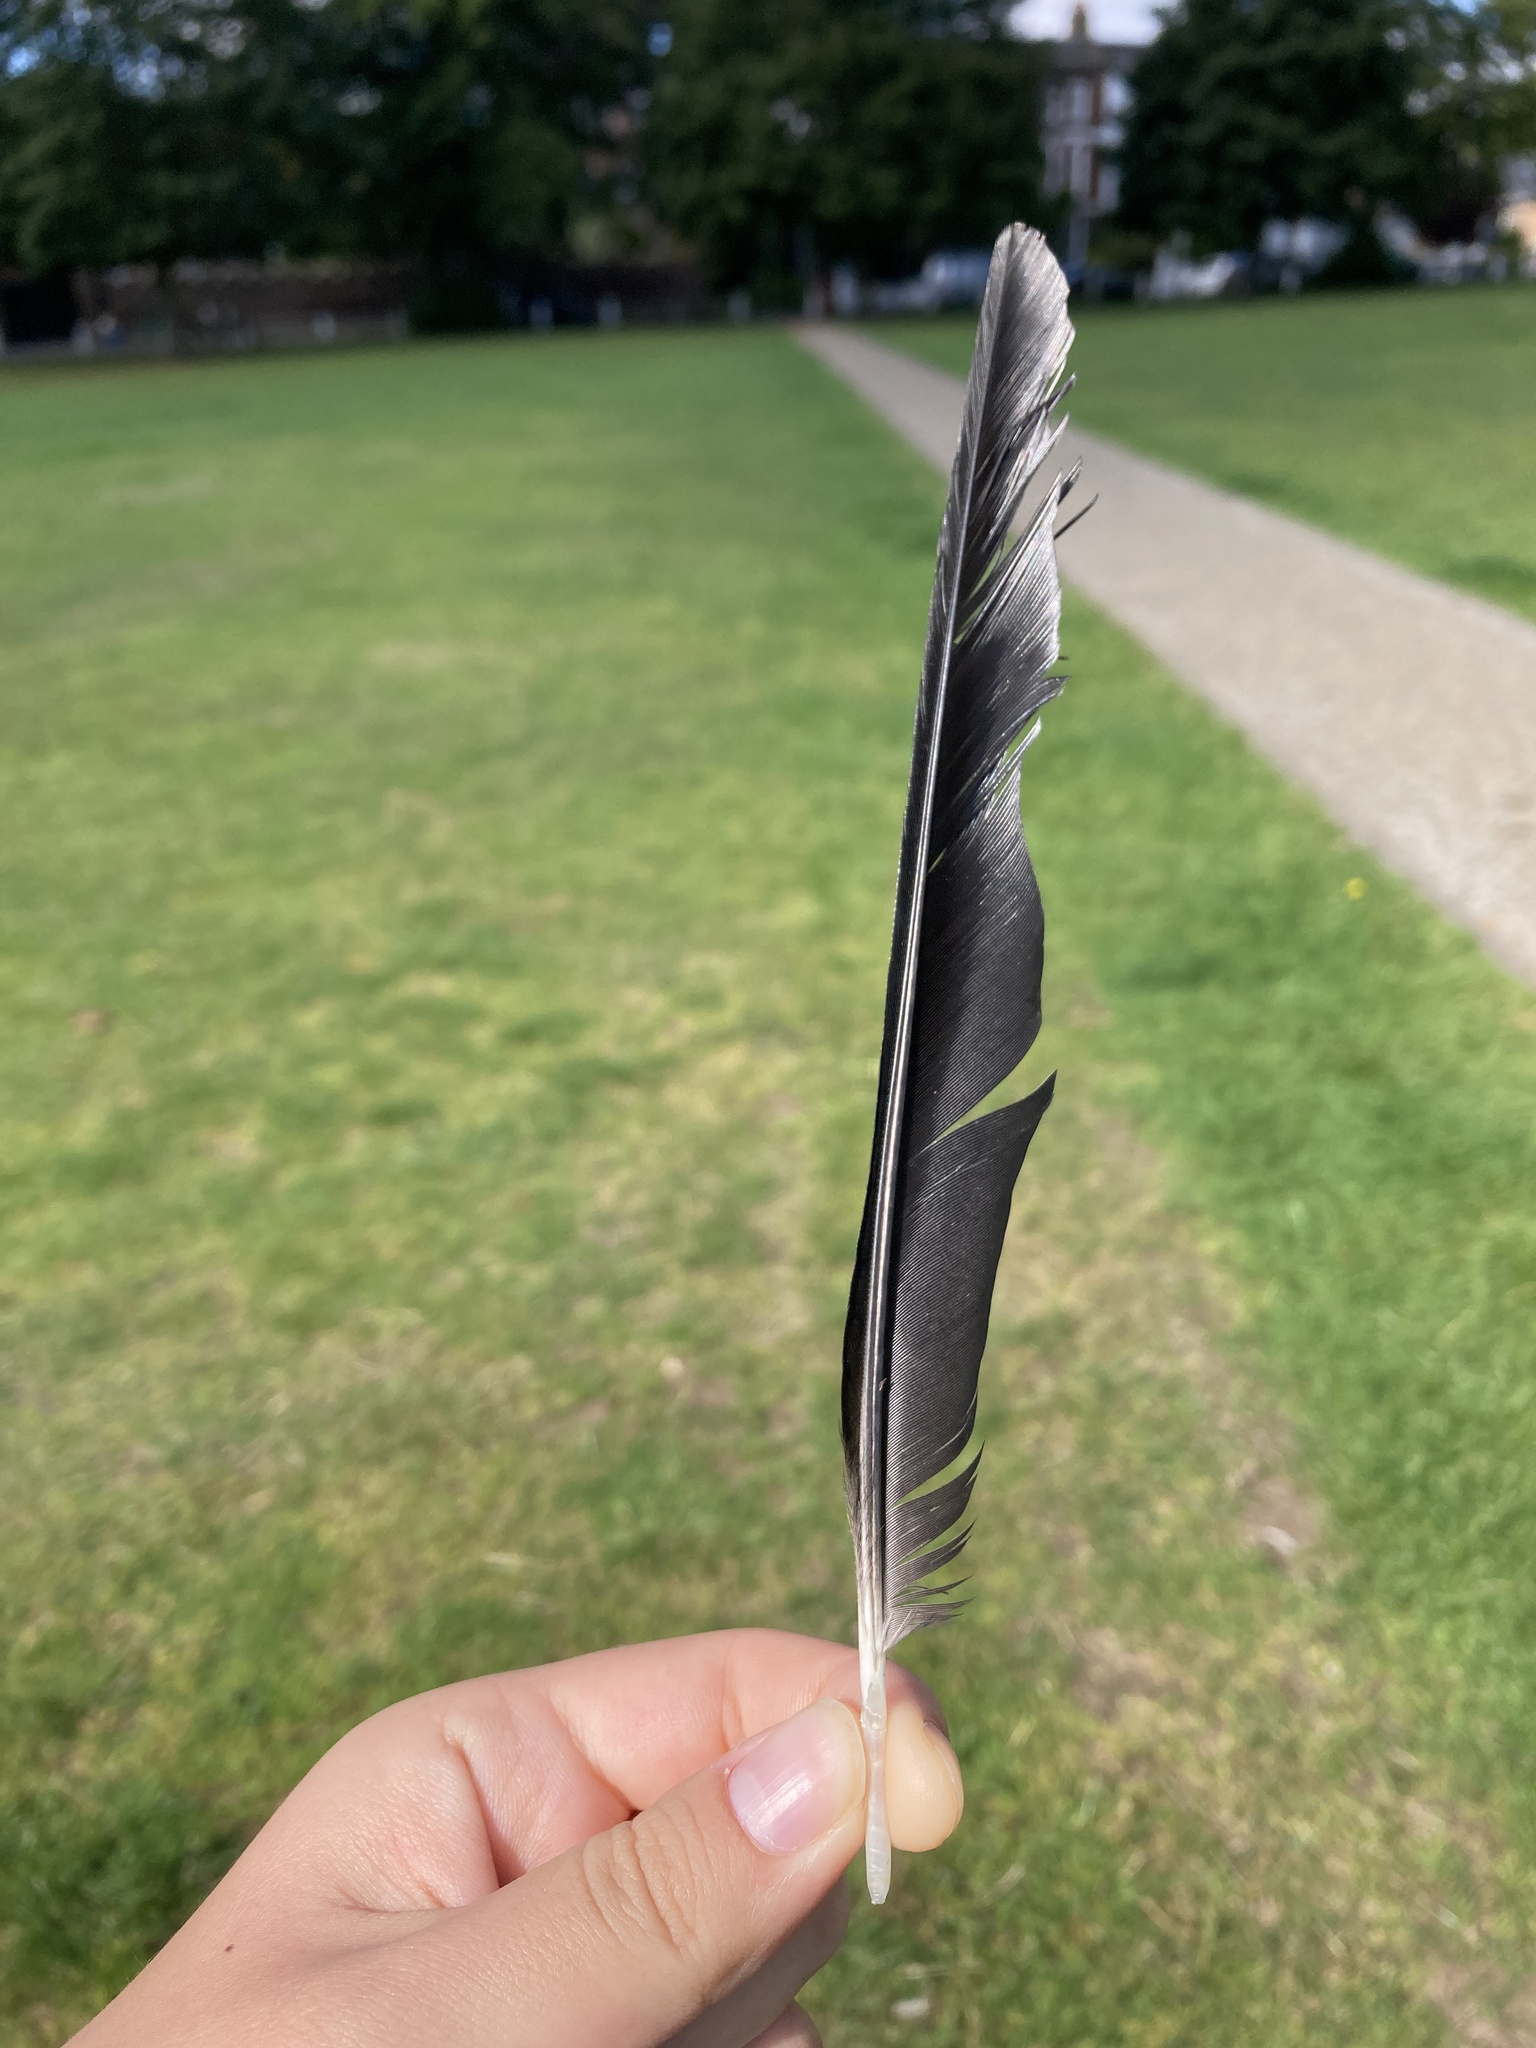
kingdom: Animalia
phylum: Chordata
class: Aves
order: Passeriformes
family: Corvidae
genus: Coloeus
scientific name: Coloeus monedula
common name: Western jackdaw
